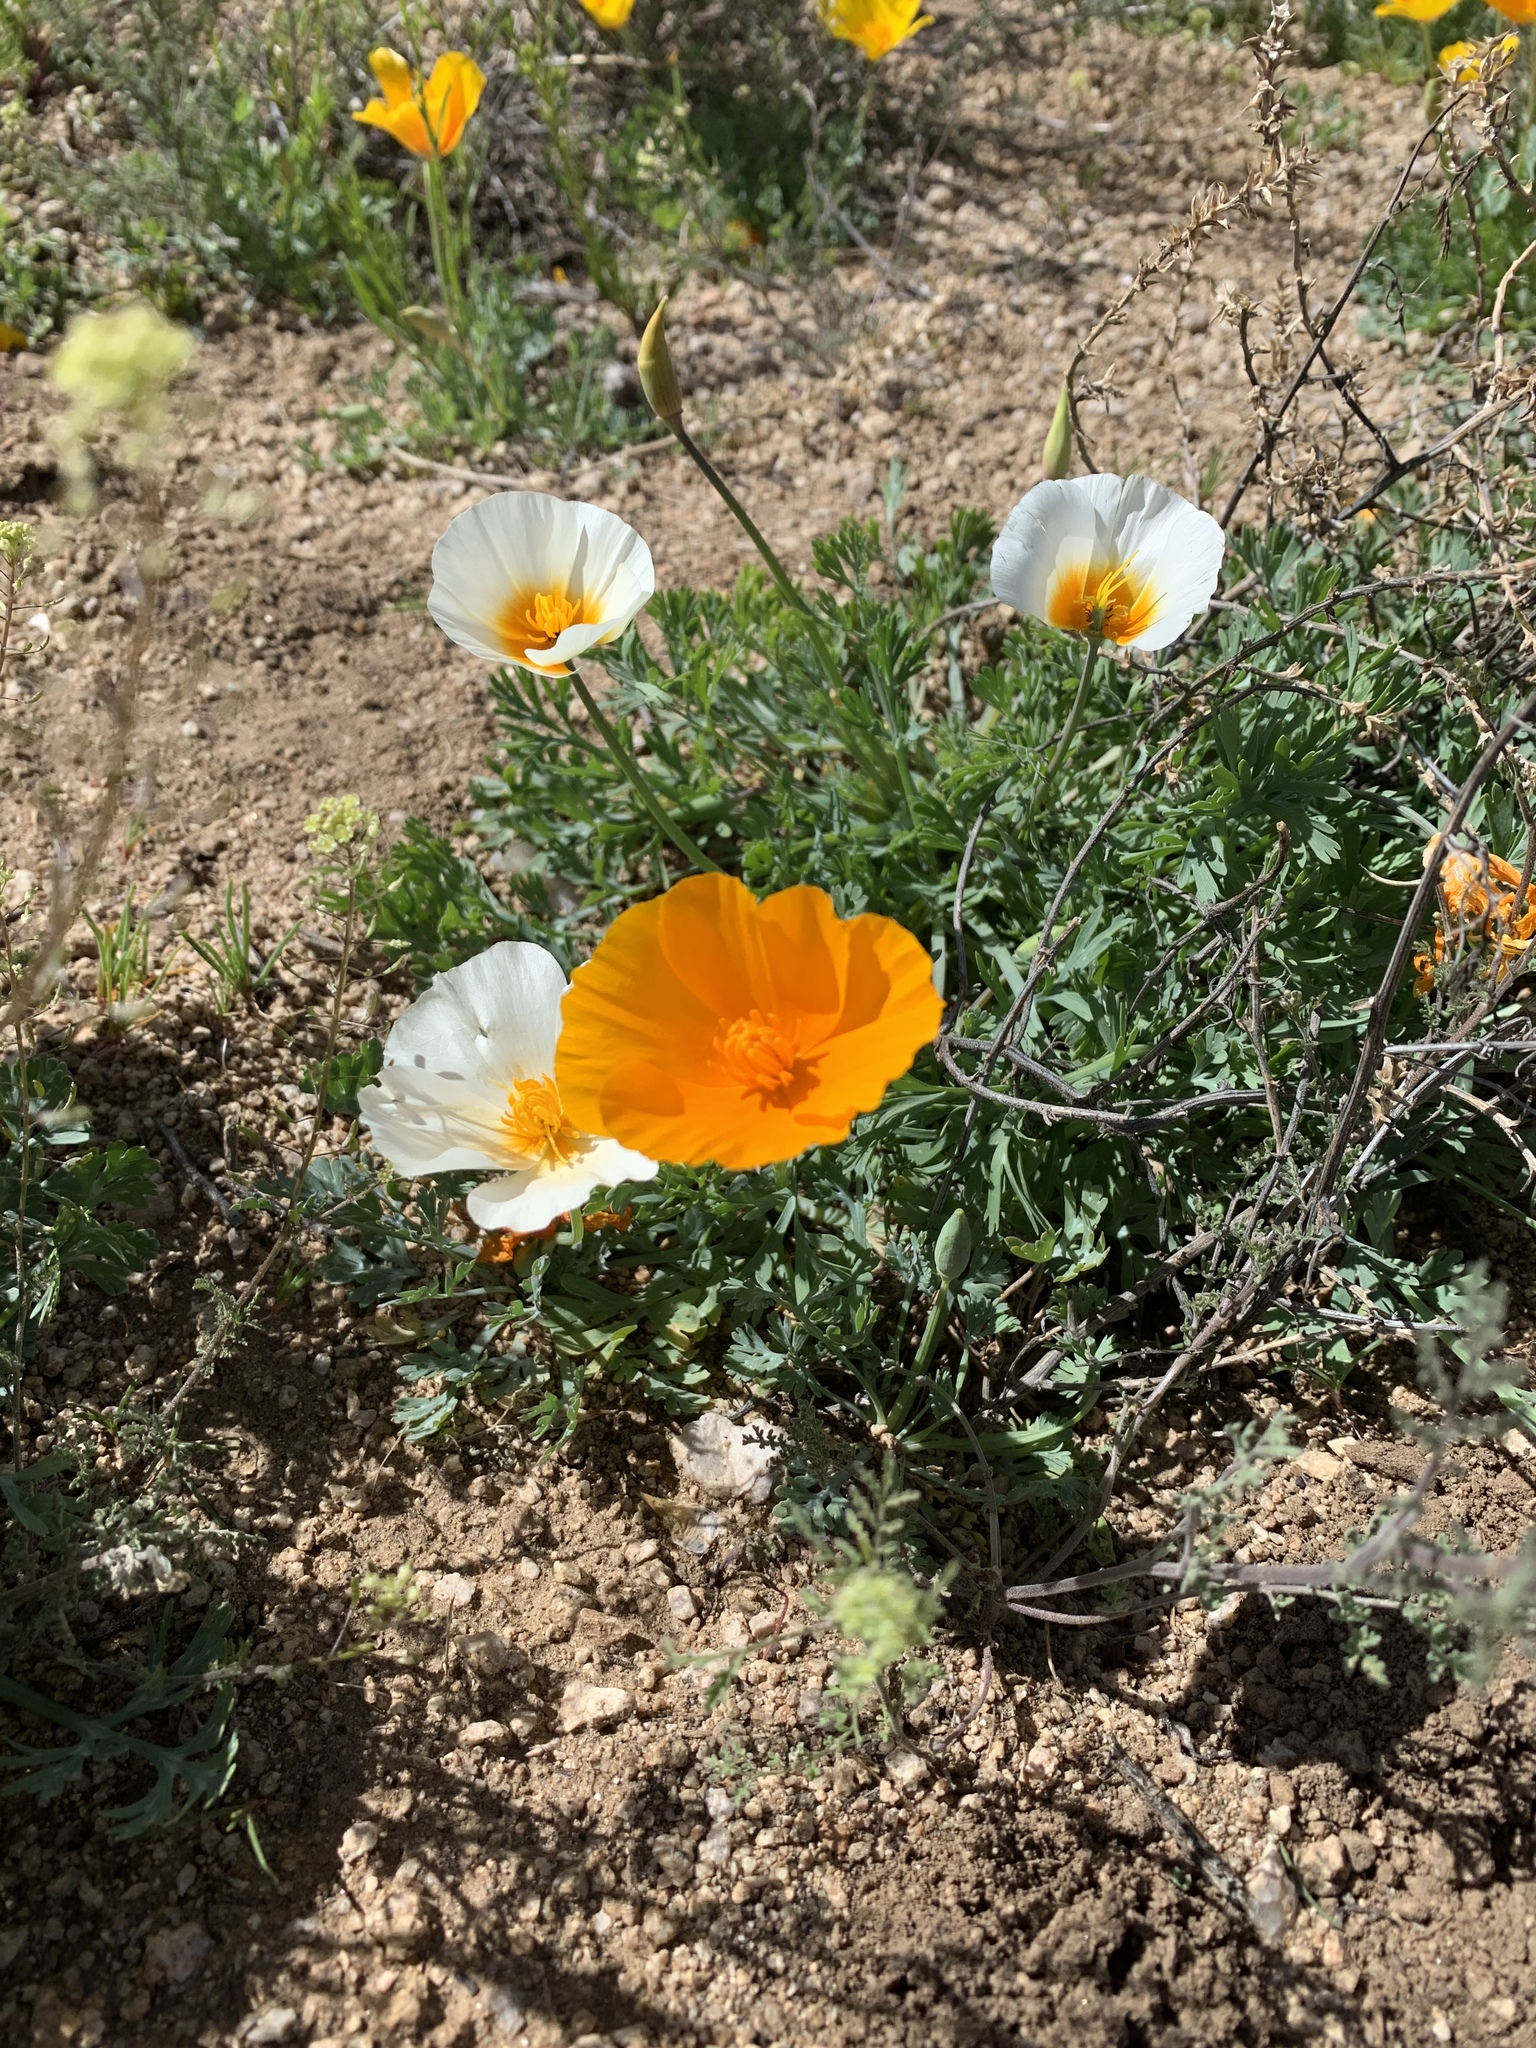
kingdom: Plantae
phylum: Tracheophyta
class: Magnoliopsida
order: Ranunculales
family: Papaveraceae
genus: Eschscholzia
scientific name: Eschscholzia californica
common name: California poppy
